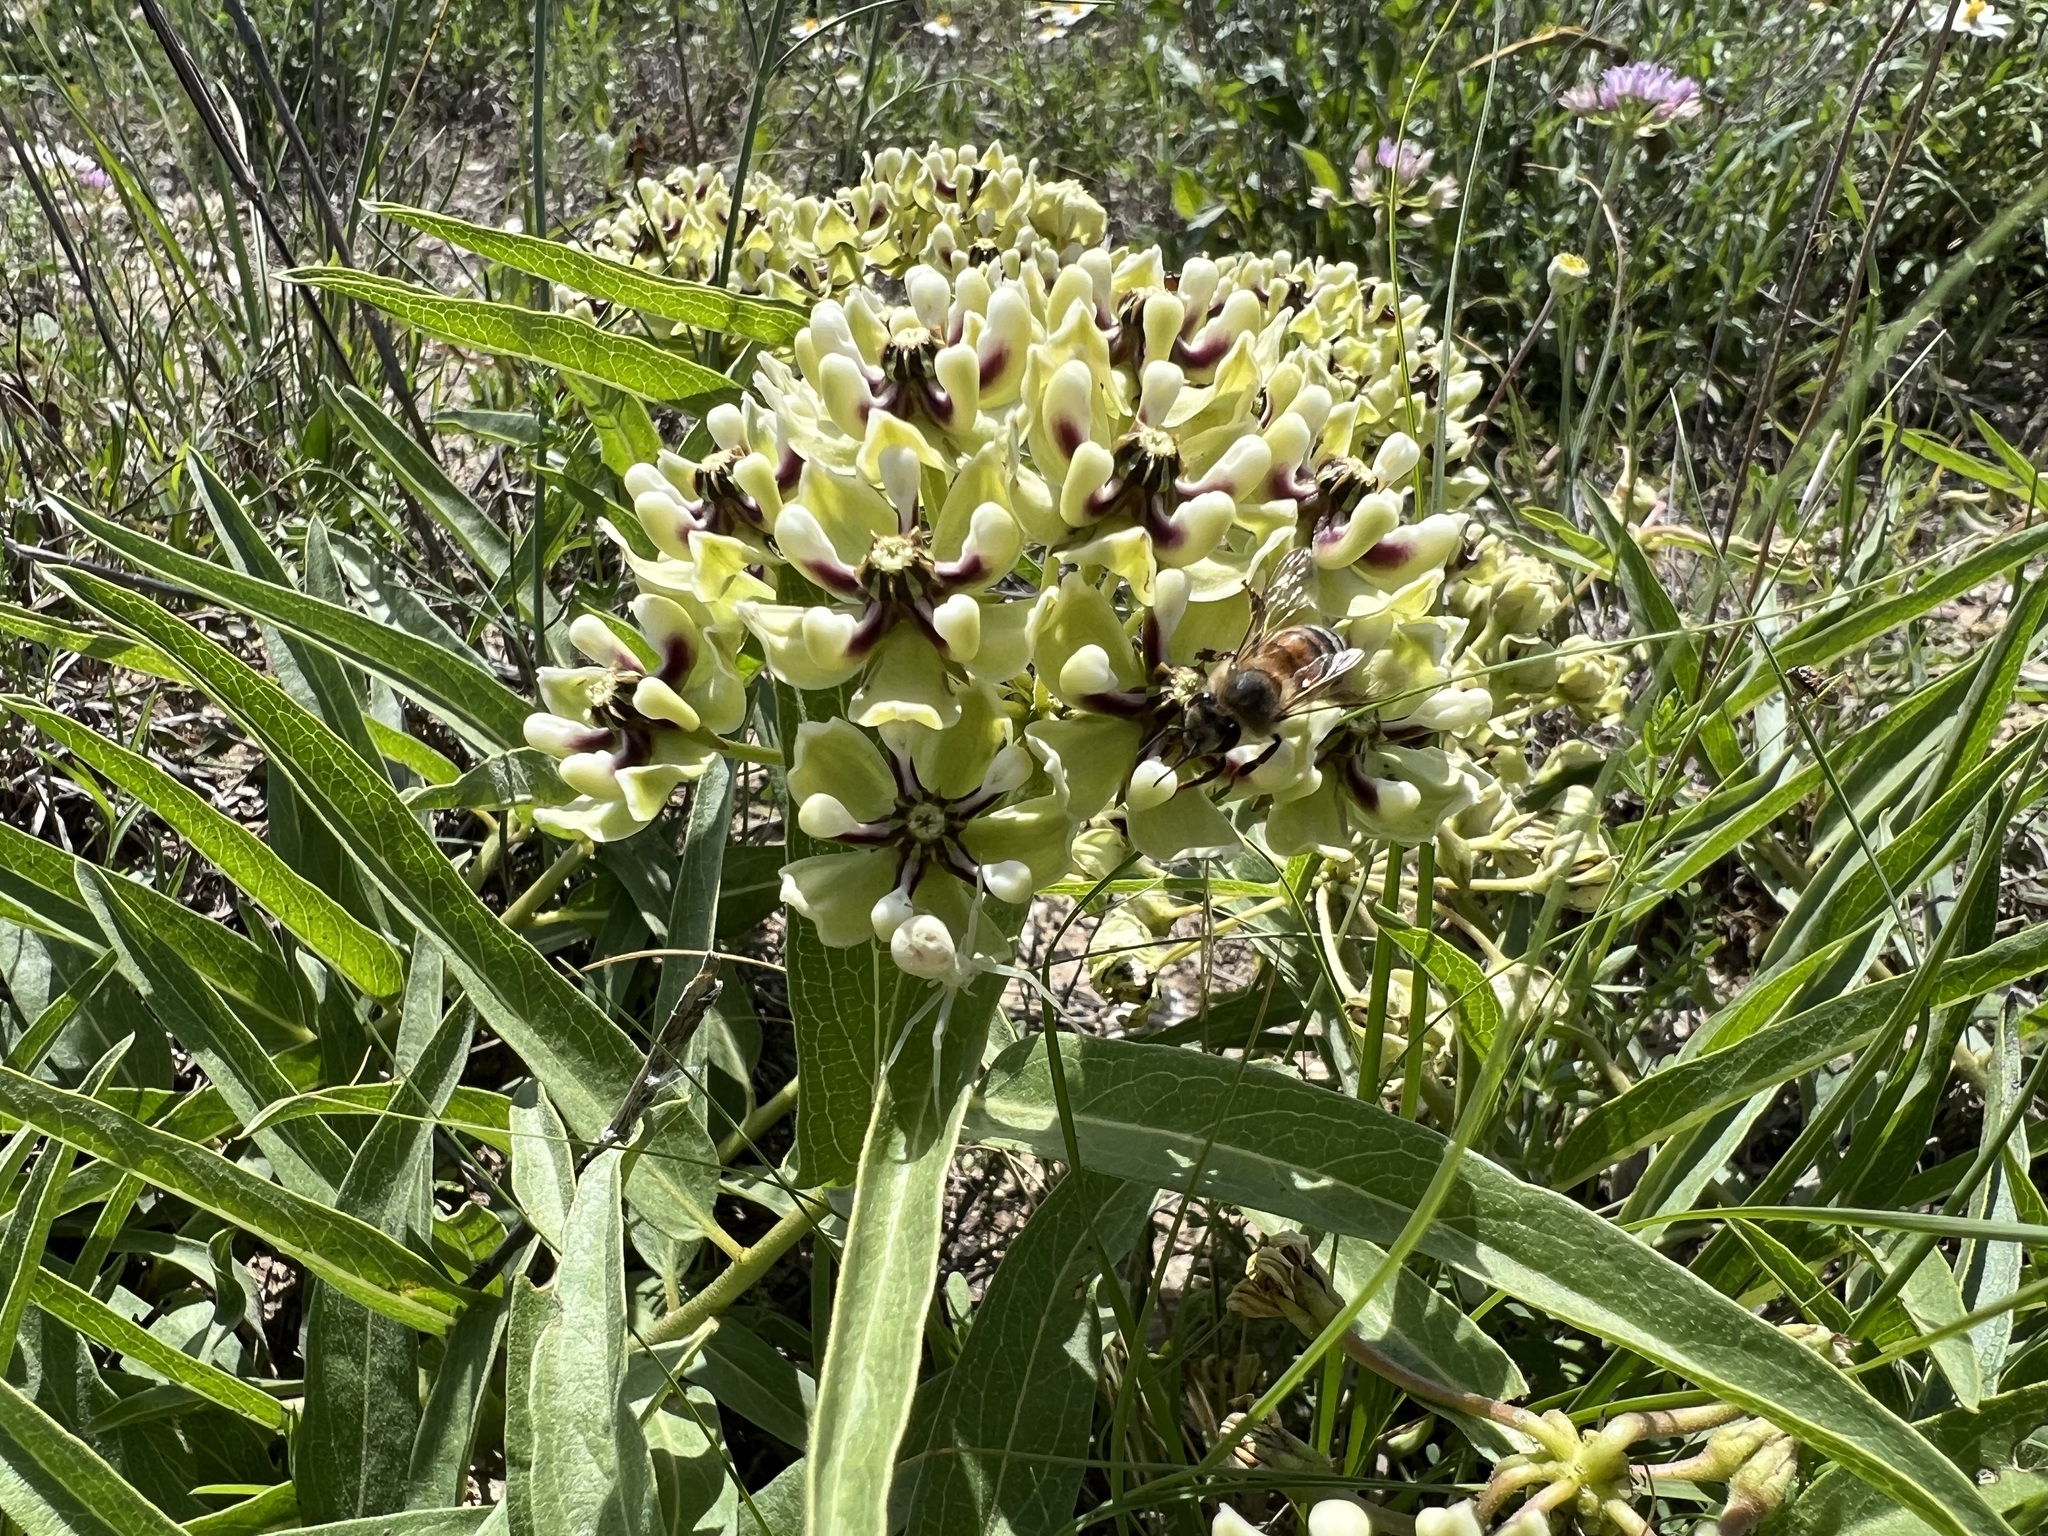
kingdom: Animalia
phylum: Arthropoda
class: Insecta
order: Hymenoptera
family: Apidae
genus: Apis
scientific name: Apis mellifera
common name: Honey bee
